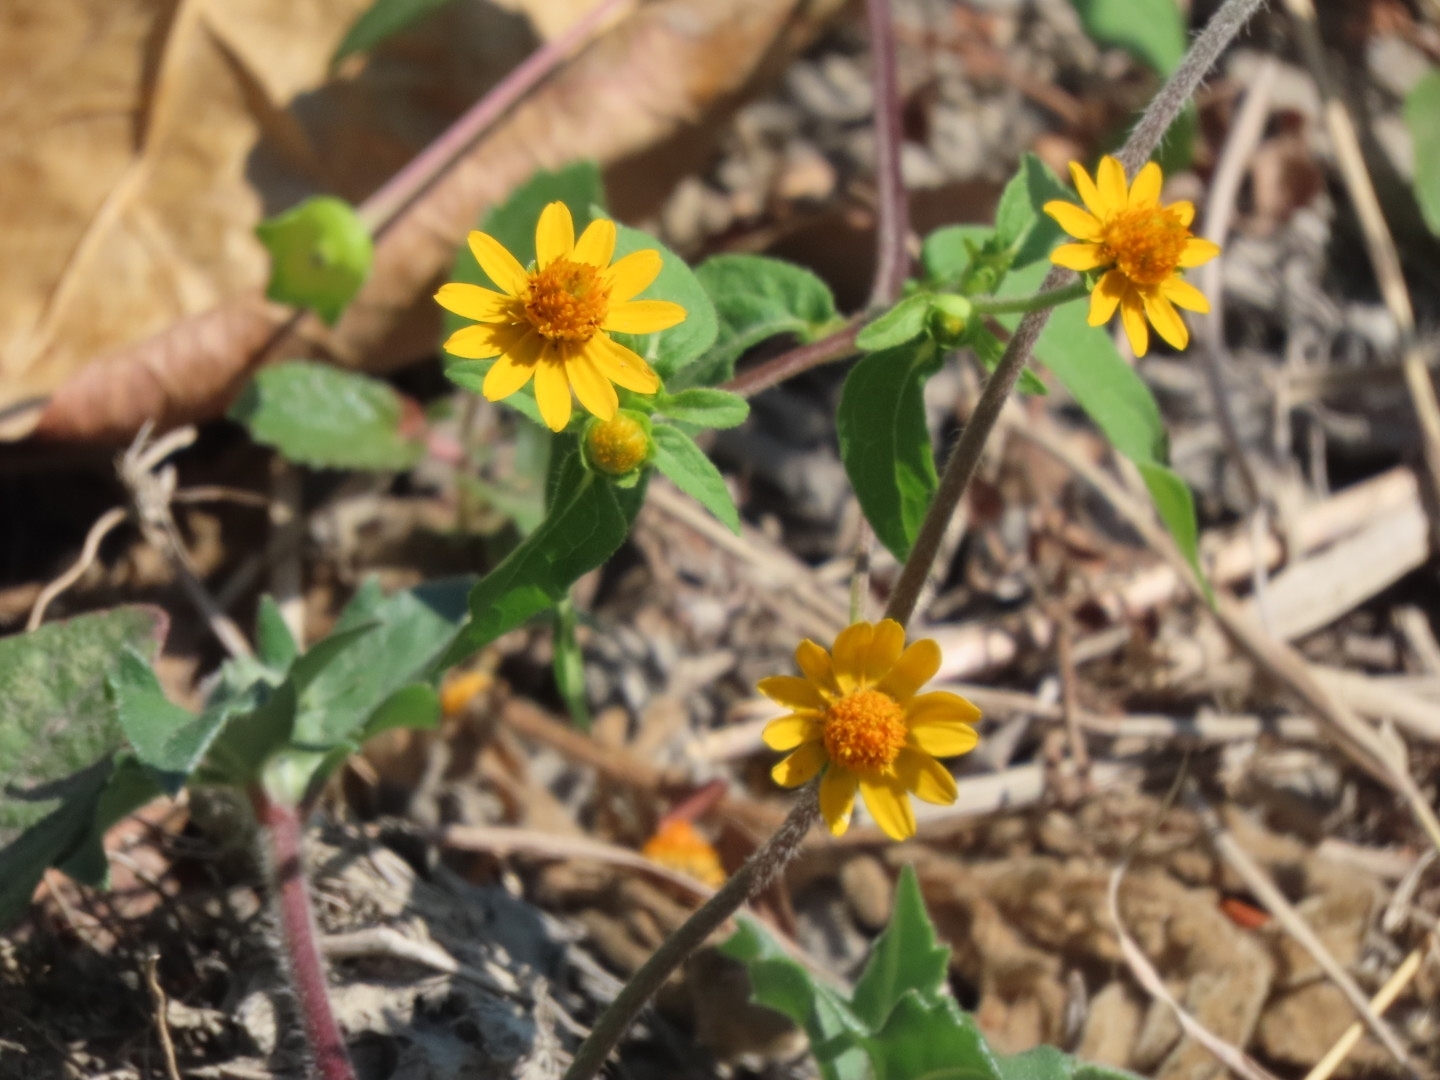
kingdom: Plantae
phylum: Tracheophyta
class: Magnoliopsida
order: Asterales
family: Asteraceae
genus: Melampodium
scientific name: Melampodium divaricatum
